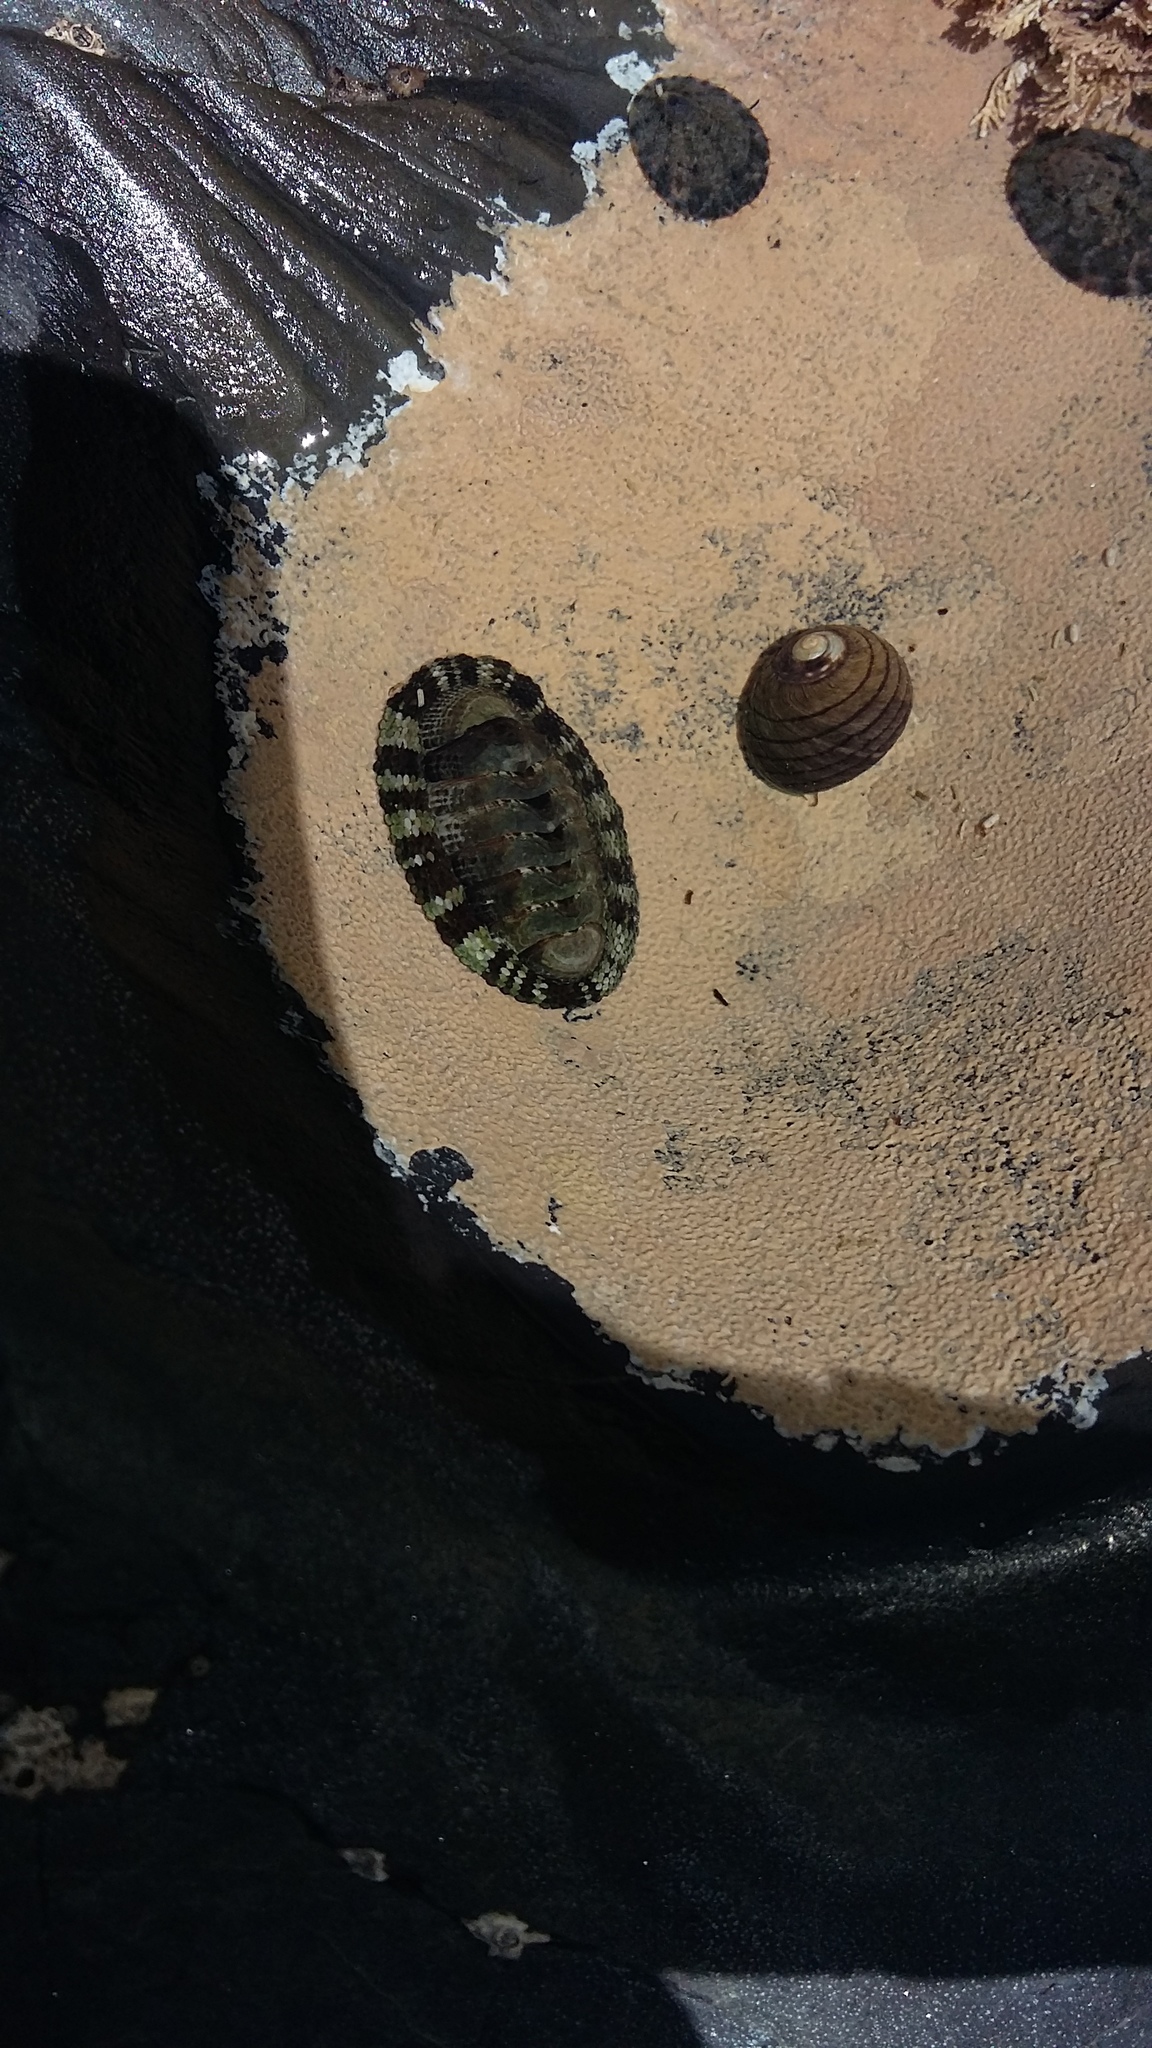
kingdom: Animalia
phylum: Mollusca
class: Polyplacophora
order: Chitonida
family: Chitonidae
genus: Sypharochiton
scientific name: Sypharochiton pelliserpentis
